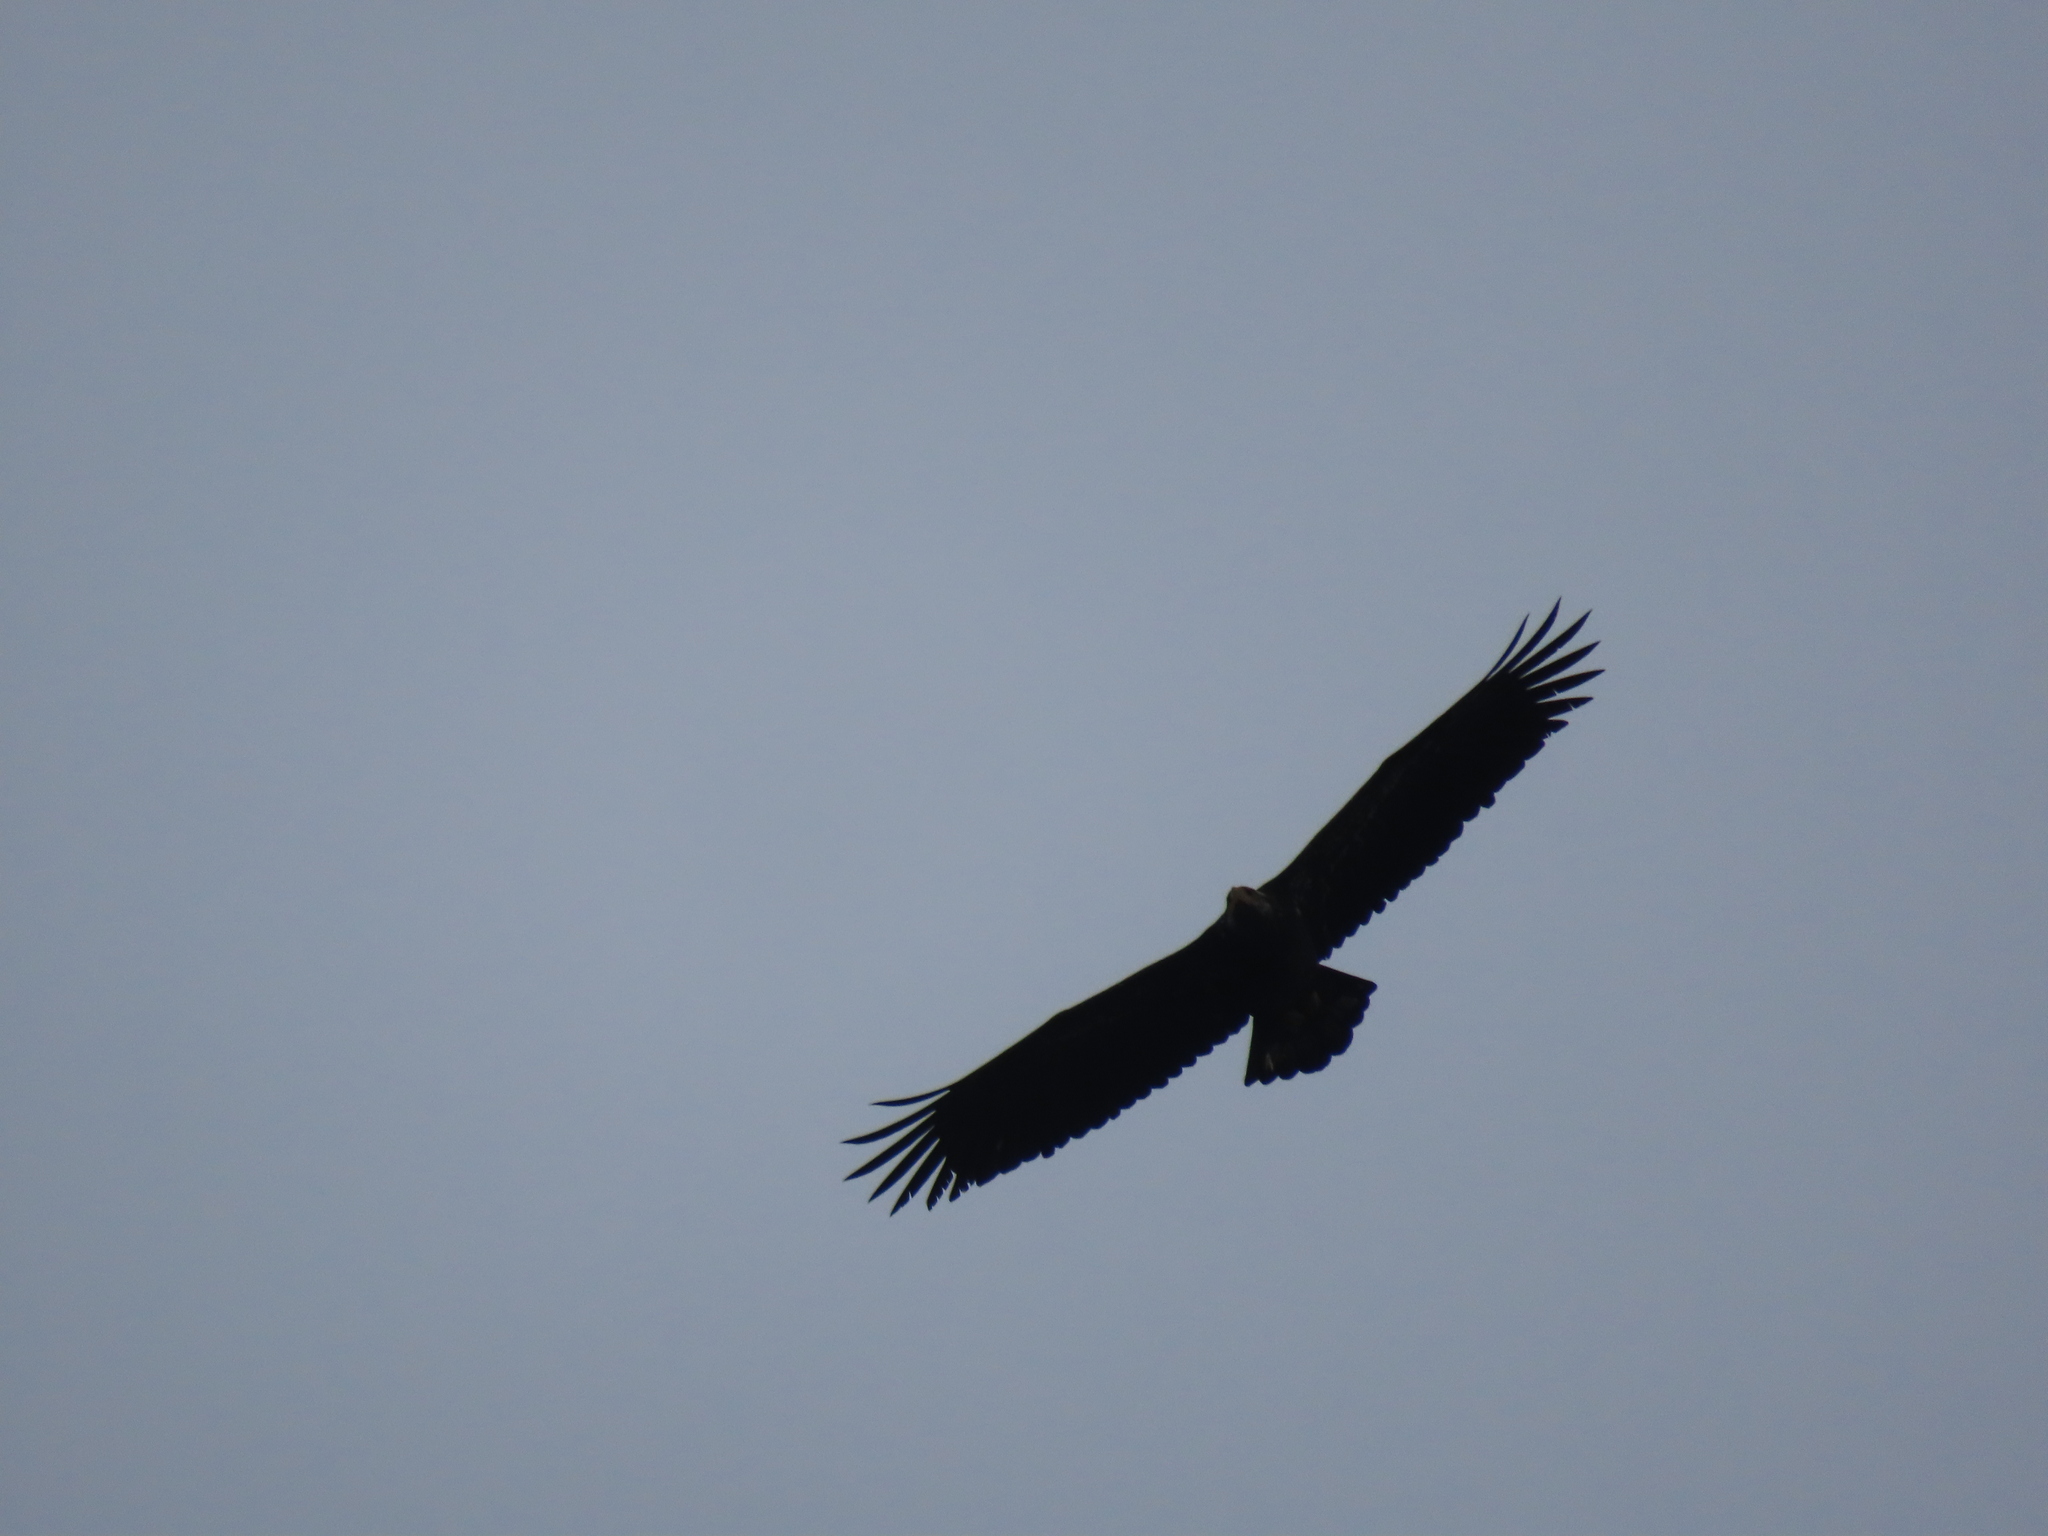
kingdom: Animalia
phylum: Chordata
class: Aves
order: Accipitriformes
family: Accipitridae
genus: Haliaeetus
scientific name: Haliaeetus leucocephalus
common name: Bald eagle
